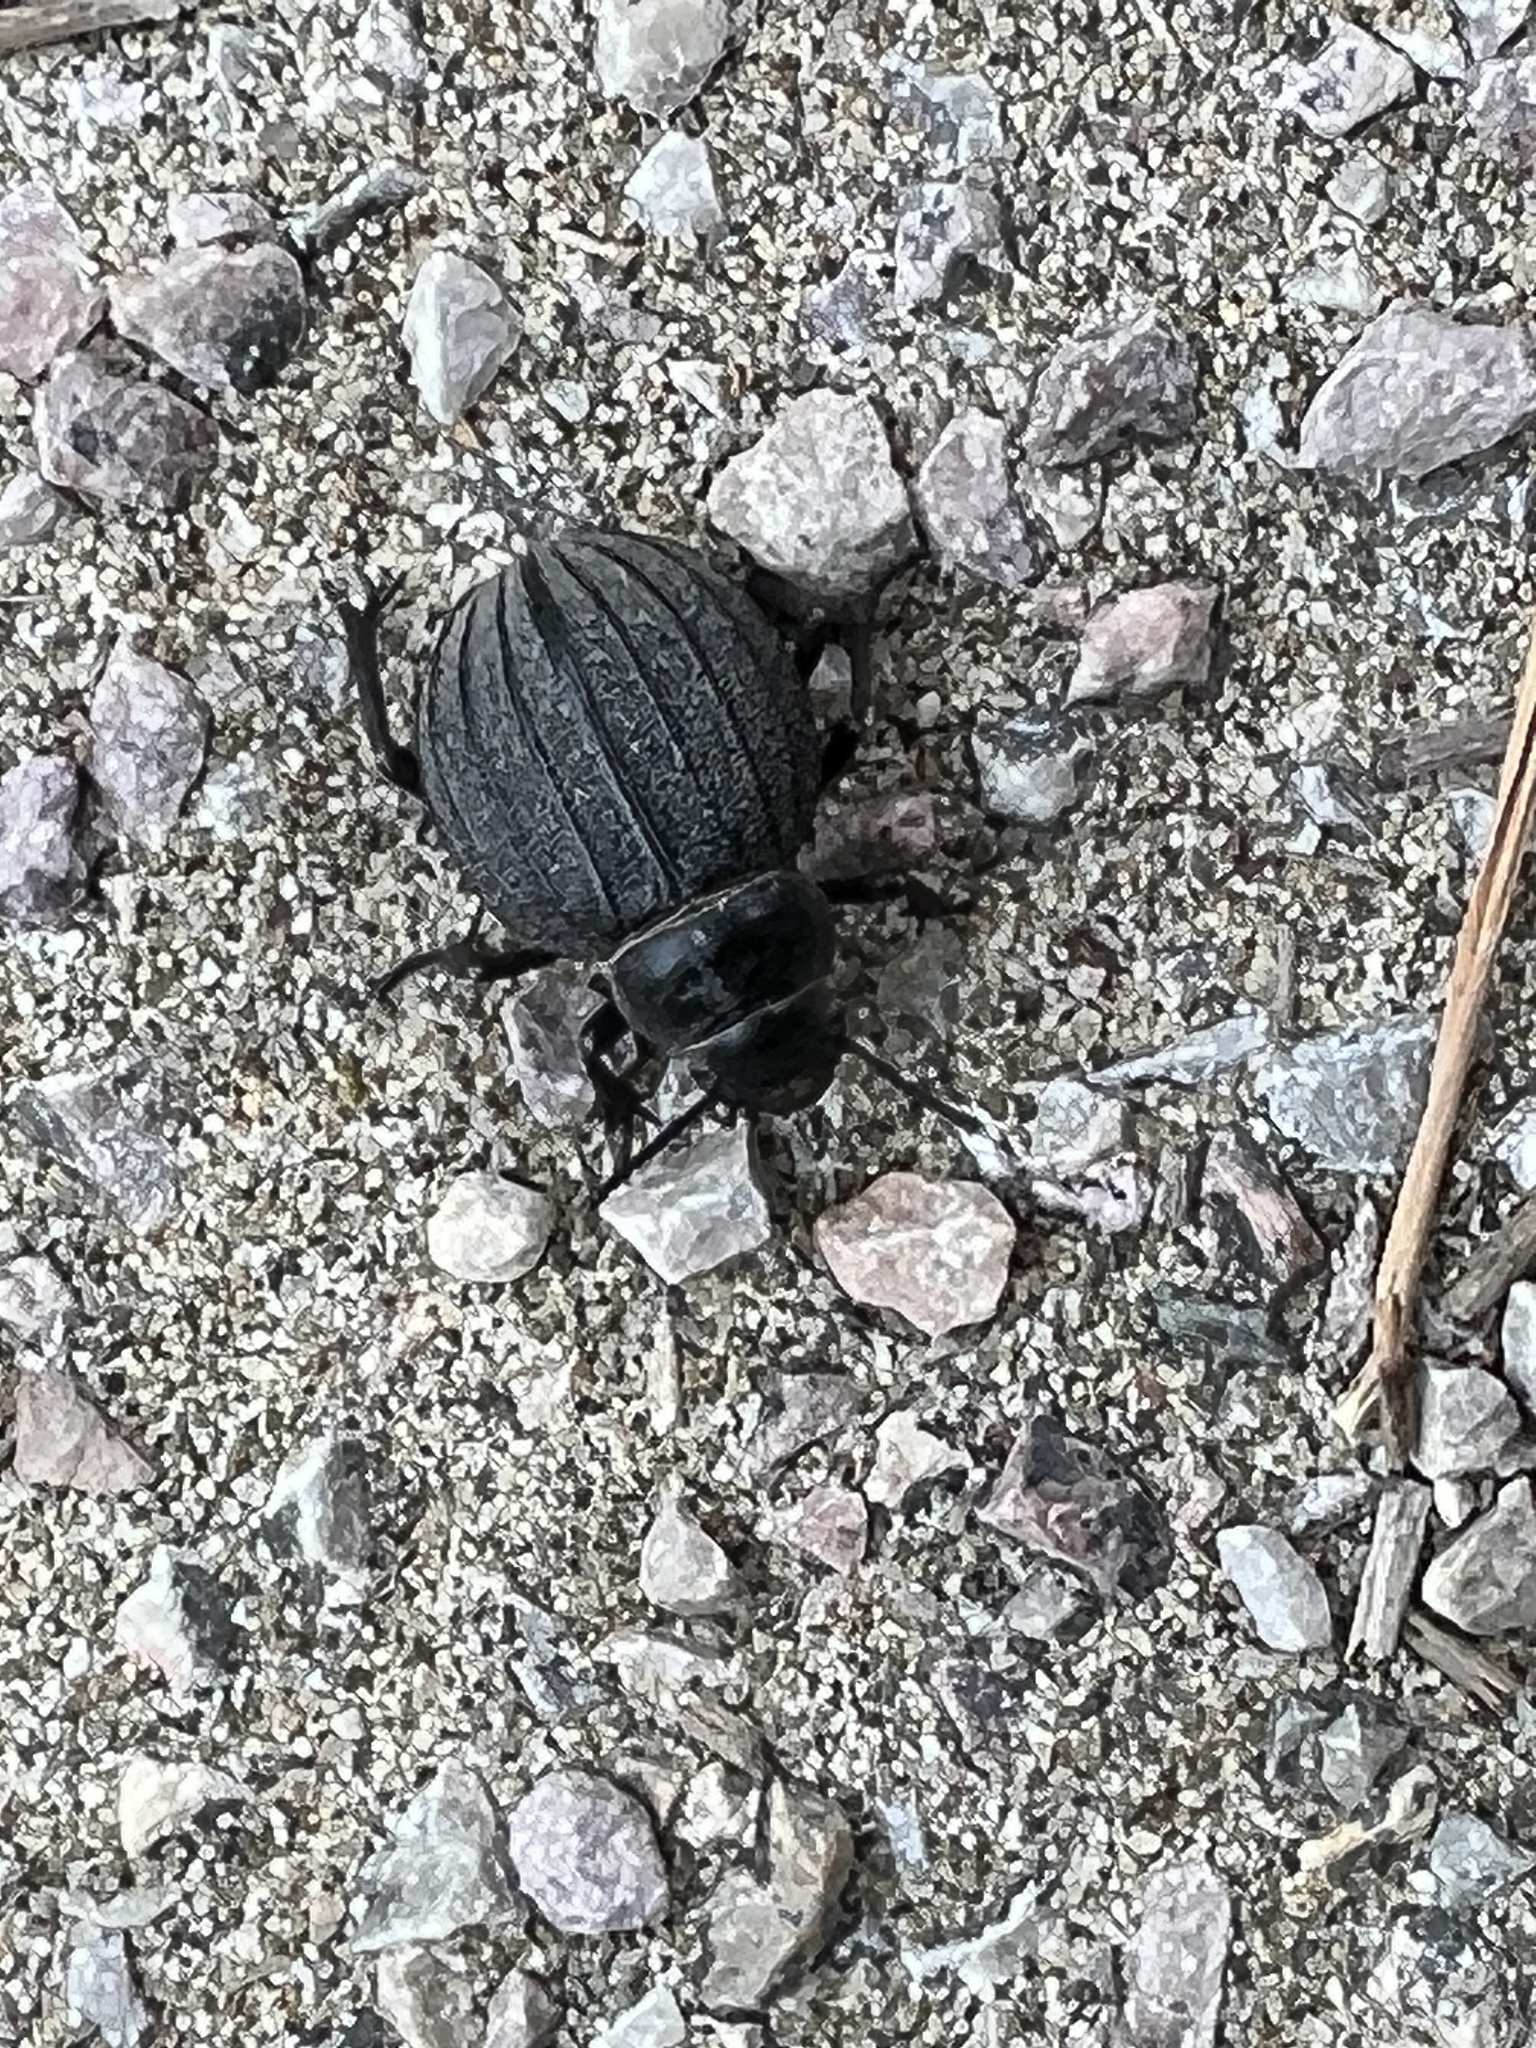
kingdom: Animalia
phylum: Arthropoda
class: Insecta
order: Coleoptera
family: Tenebrionidae
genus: Pimelia
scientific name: Pimelia bipunctata
